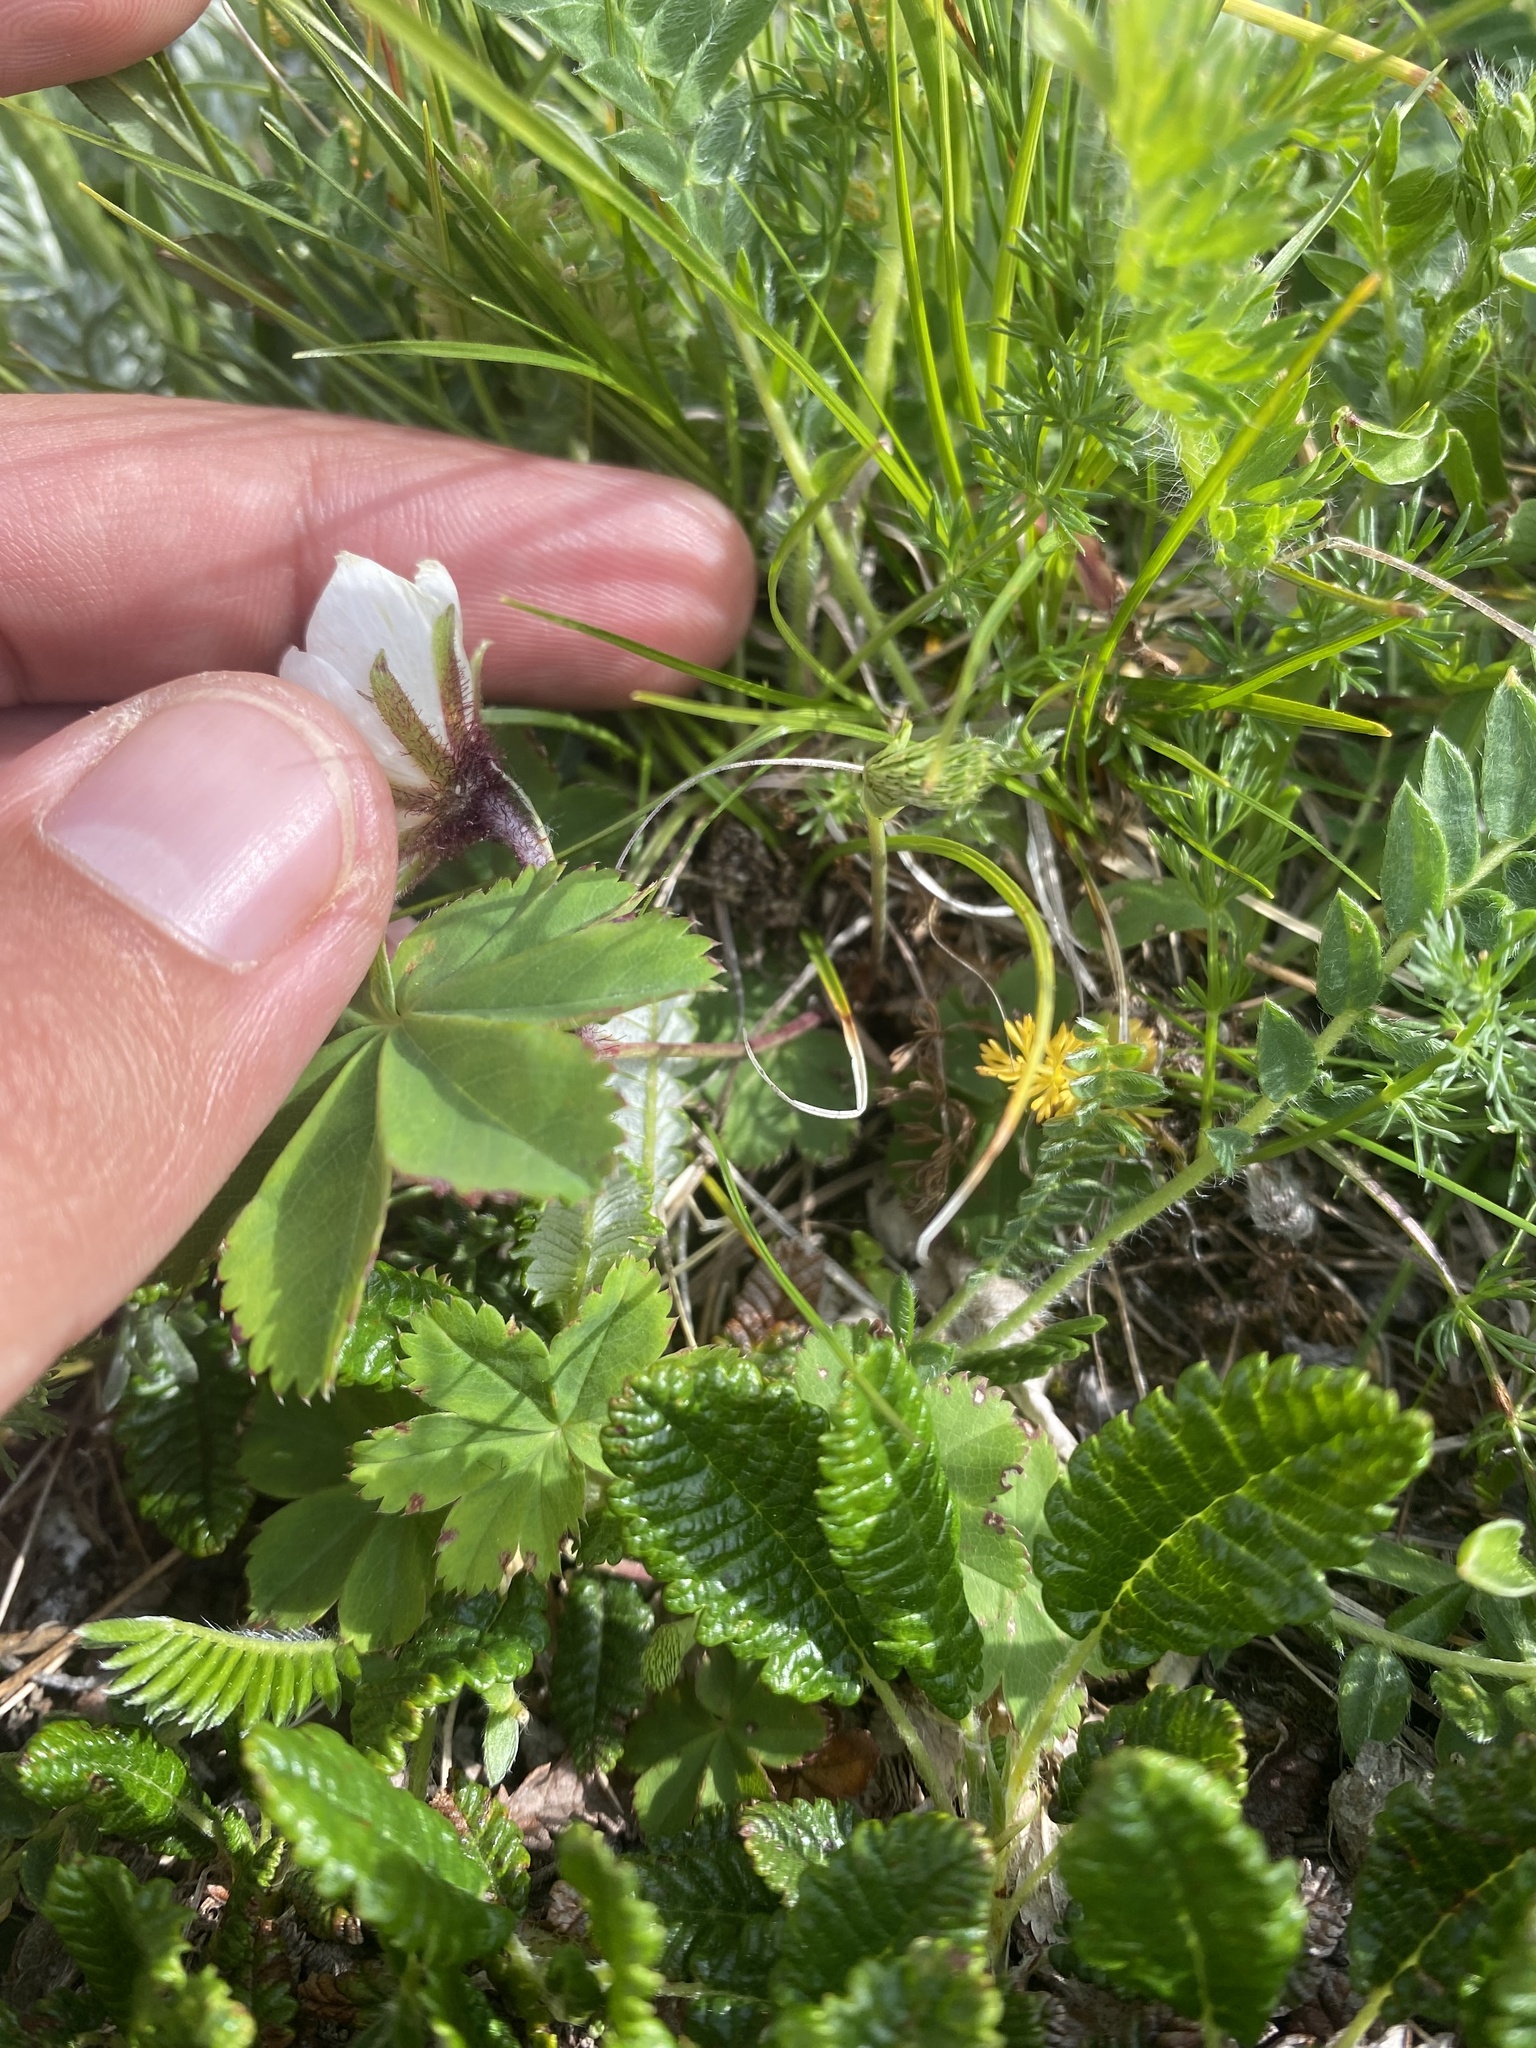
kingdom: Plantae
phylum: Tracheophyta
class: Magnoliopsida
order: Rosales
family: Rosaceae
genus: Dryas
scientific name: Dryas octopetala
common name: Eight-petal mountain-avens
